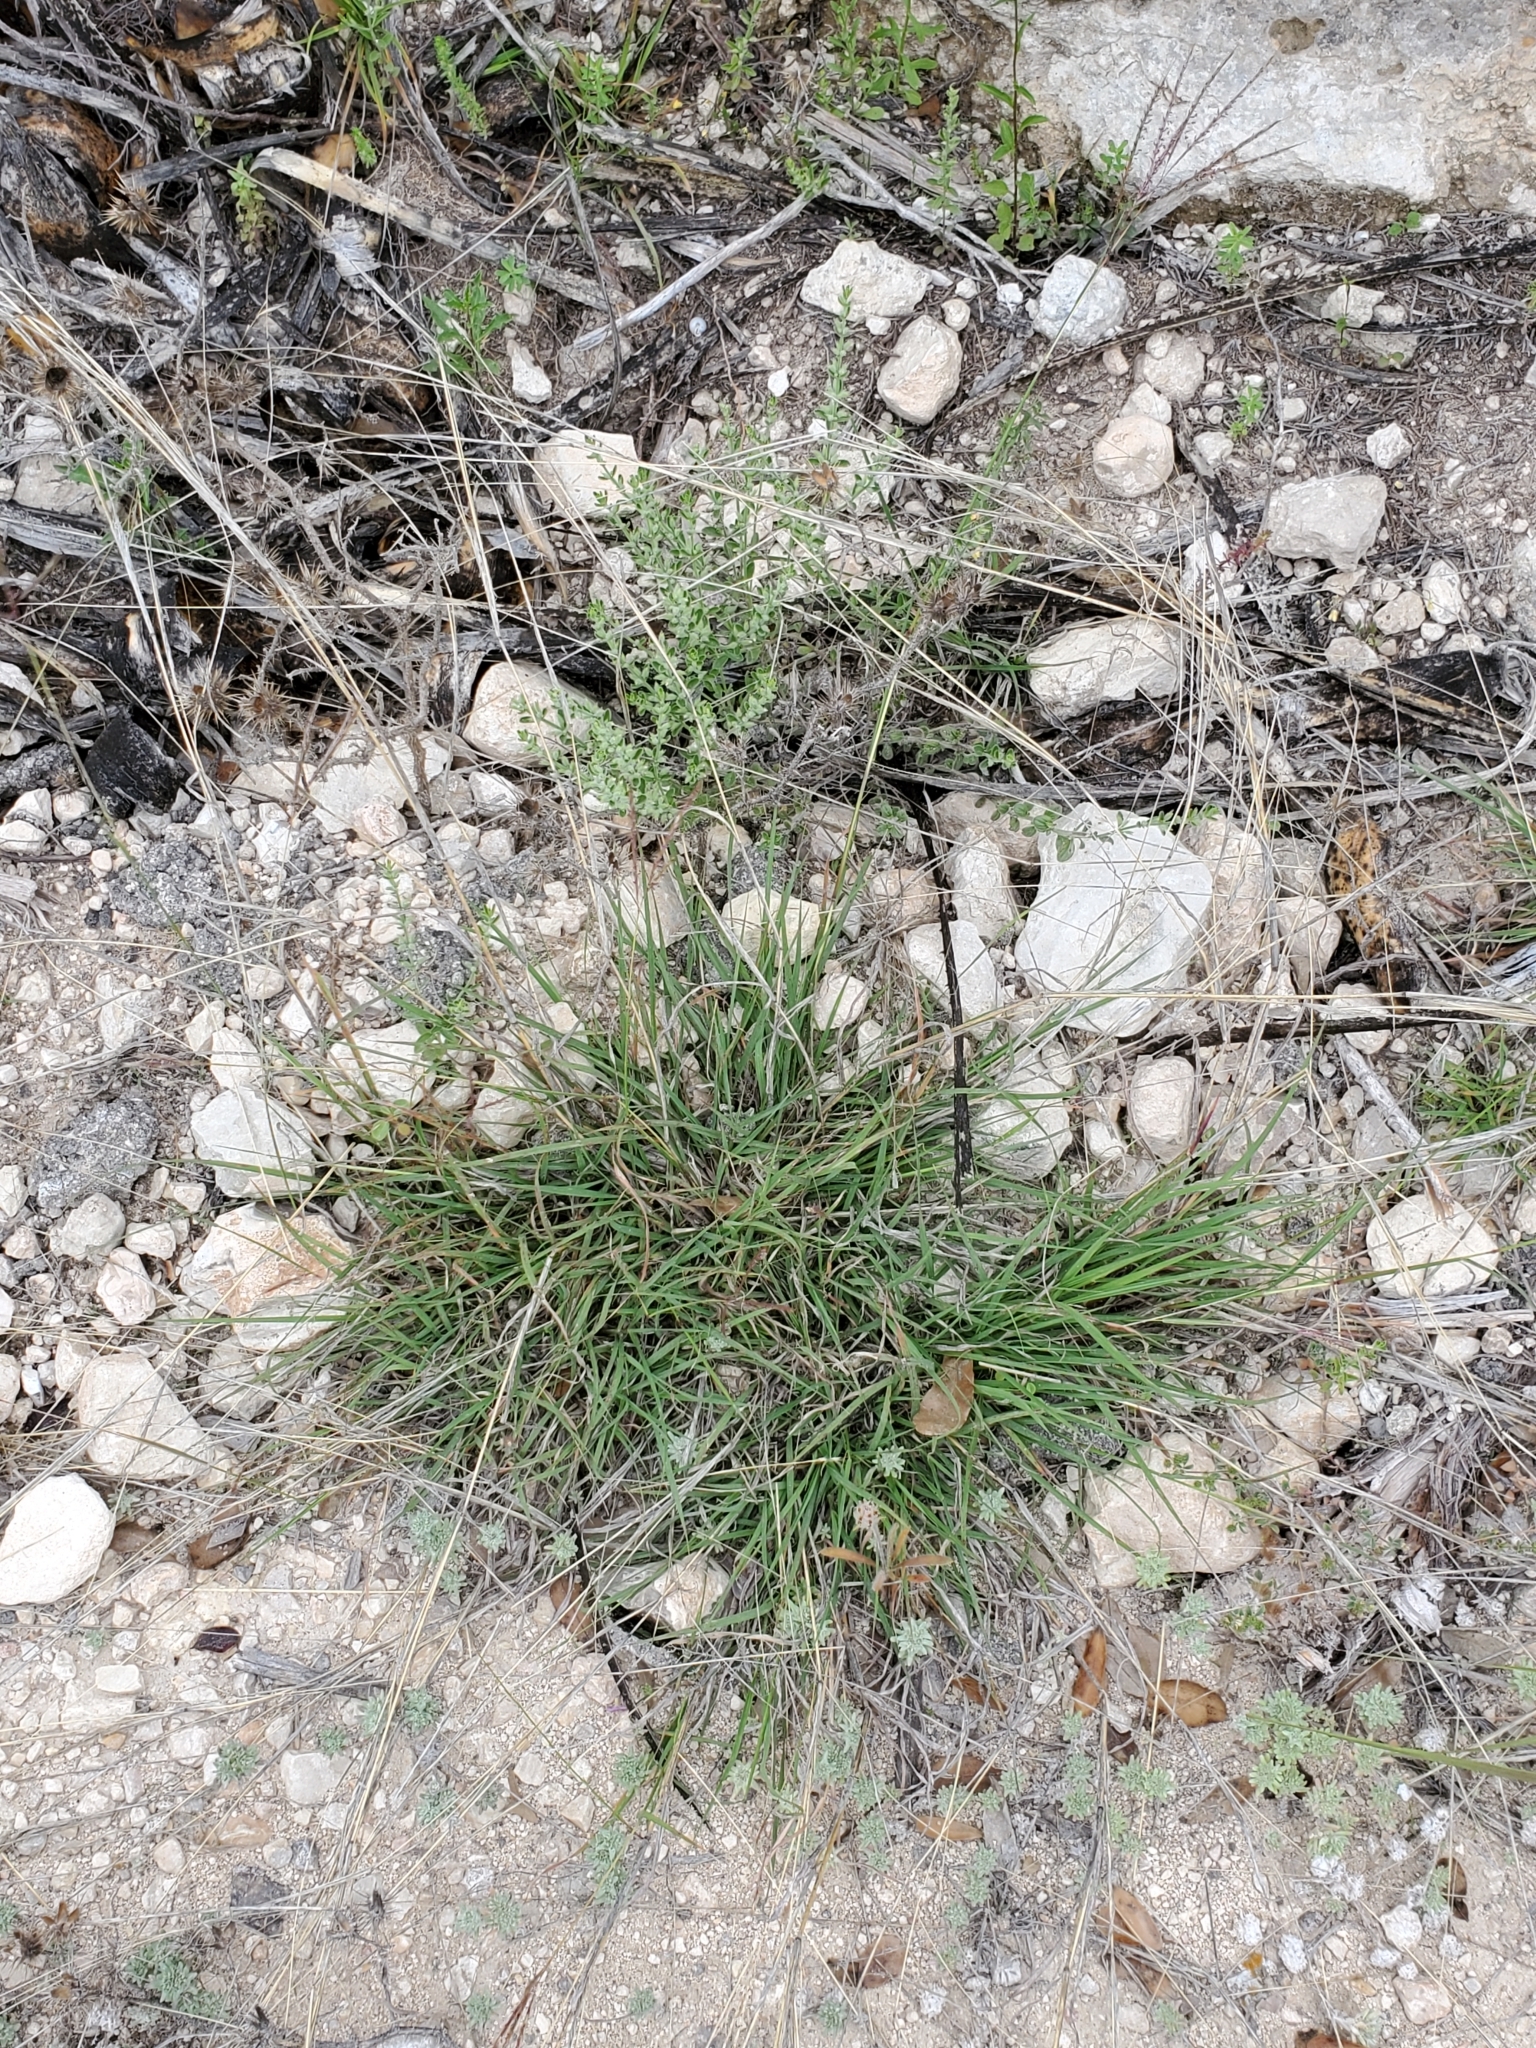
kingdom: Plantae
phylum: Tracheophyta
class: Liliopsida
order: Poales
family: Poaceae
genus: Bothriochloa
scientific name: Bothriochloa ischaemum
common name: Yellow bluestem
